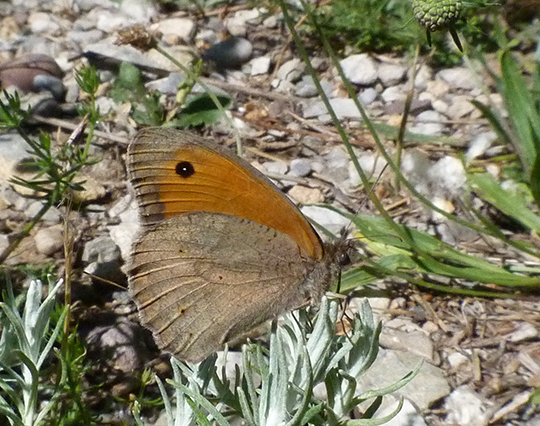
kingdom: Animalia
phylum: Arthropoda
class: Insecta
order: Lepidoptera
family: Nymphalidae
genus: Maniola
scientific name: Maniola jurtina
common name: Meadow brown
